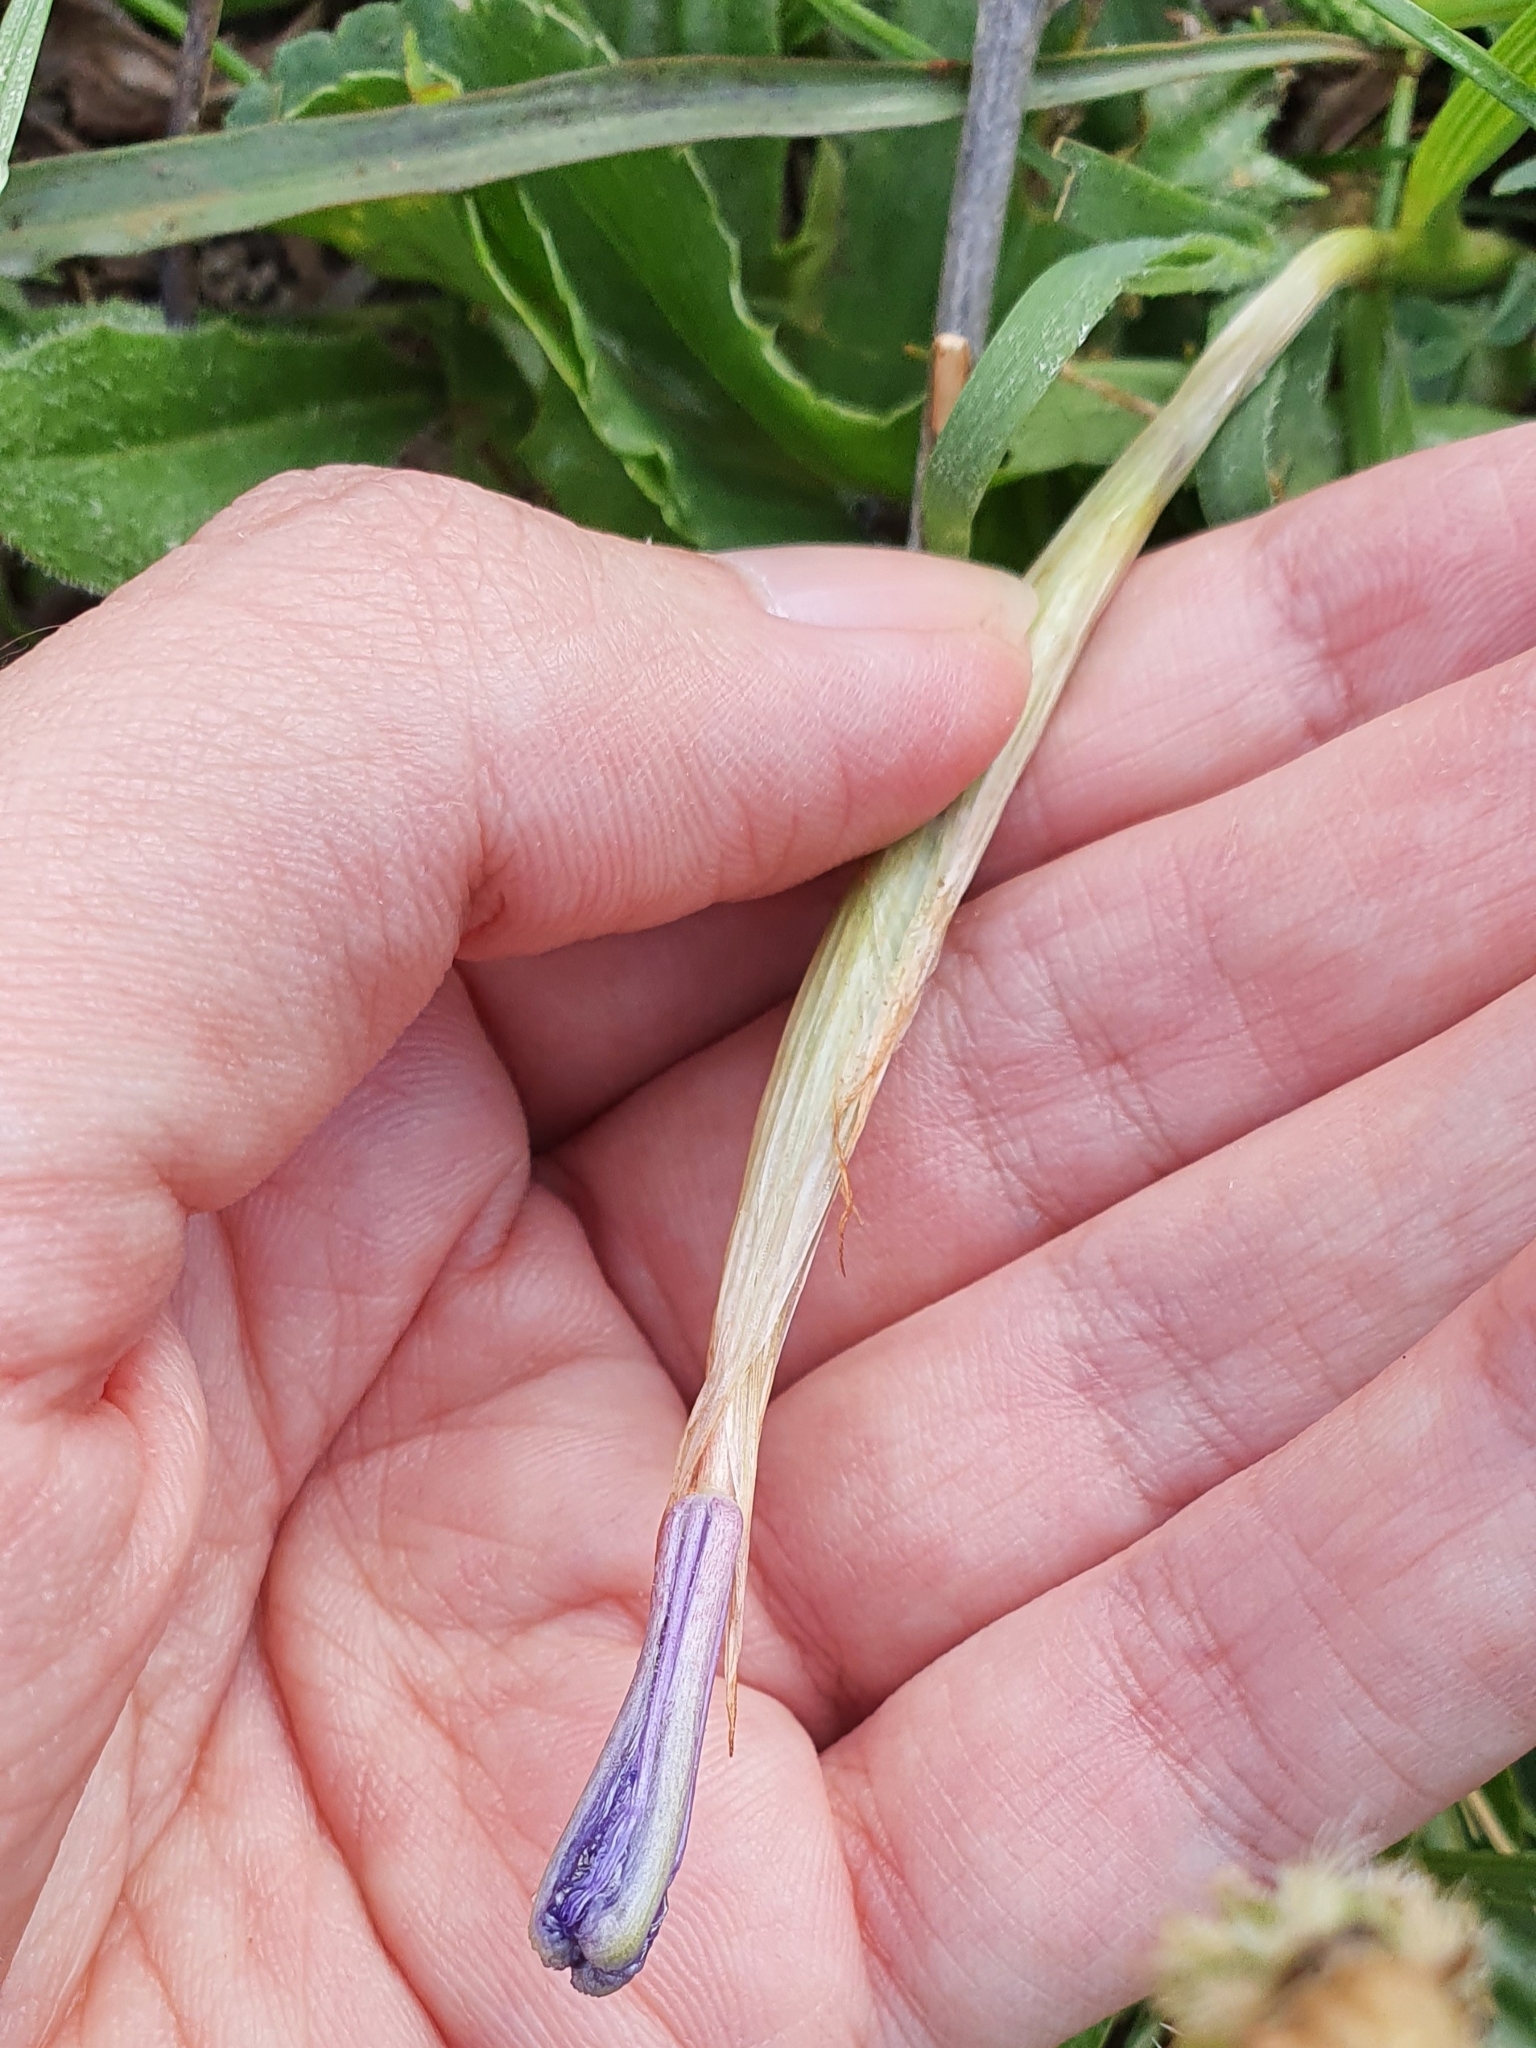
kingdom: Plantae
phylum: Tracheophyta
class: Liliopsida
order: Asparagales
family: Iridaceae
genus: Moraea
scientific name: Moraea sisyrinchium
